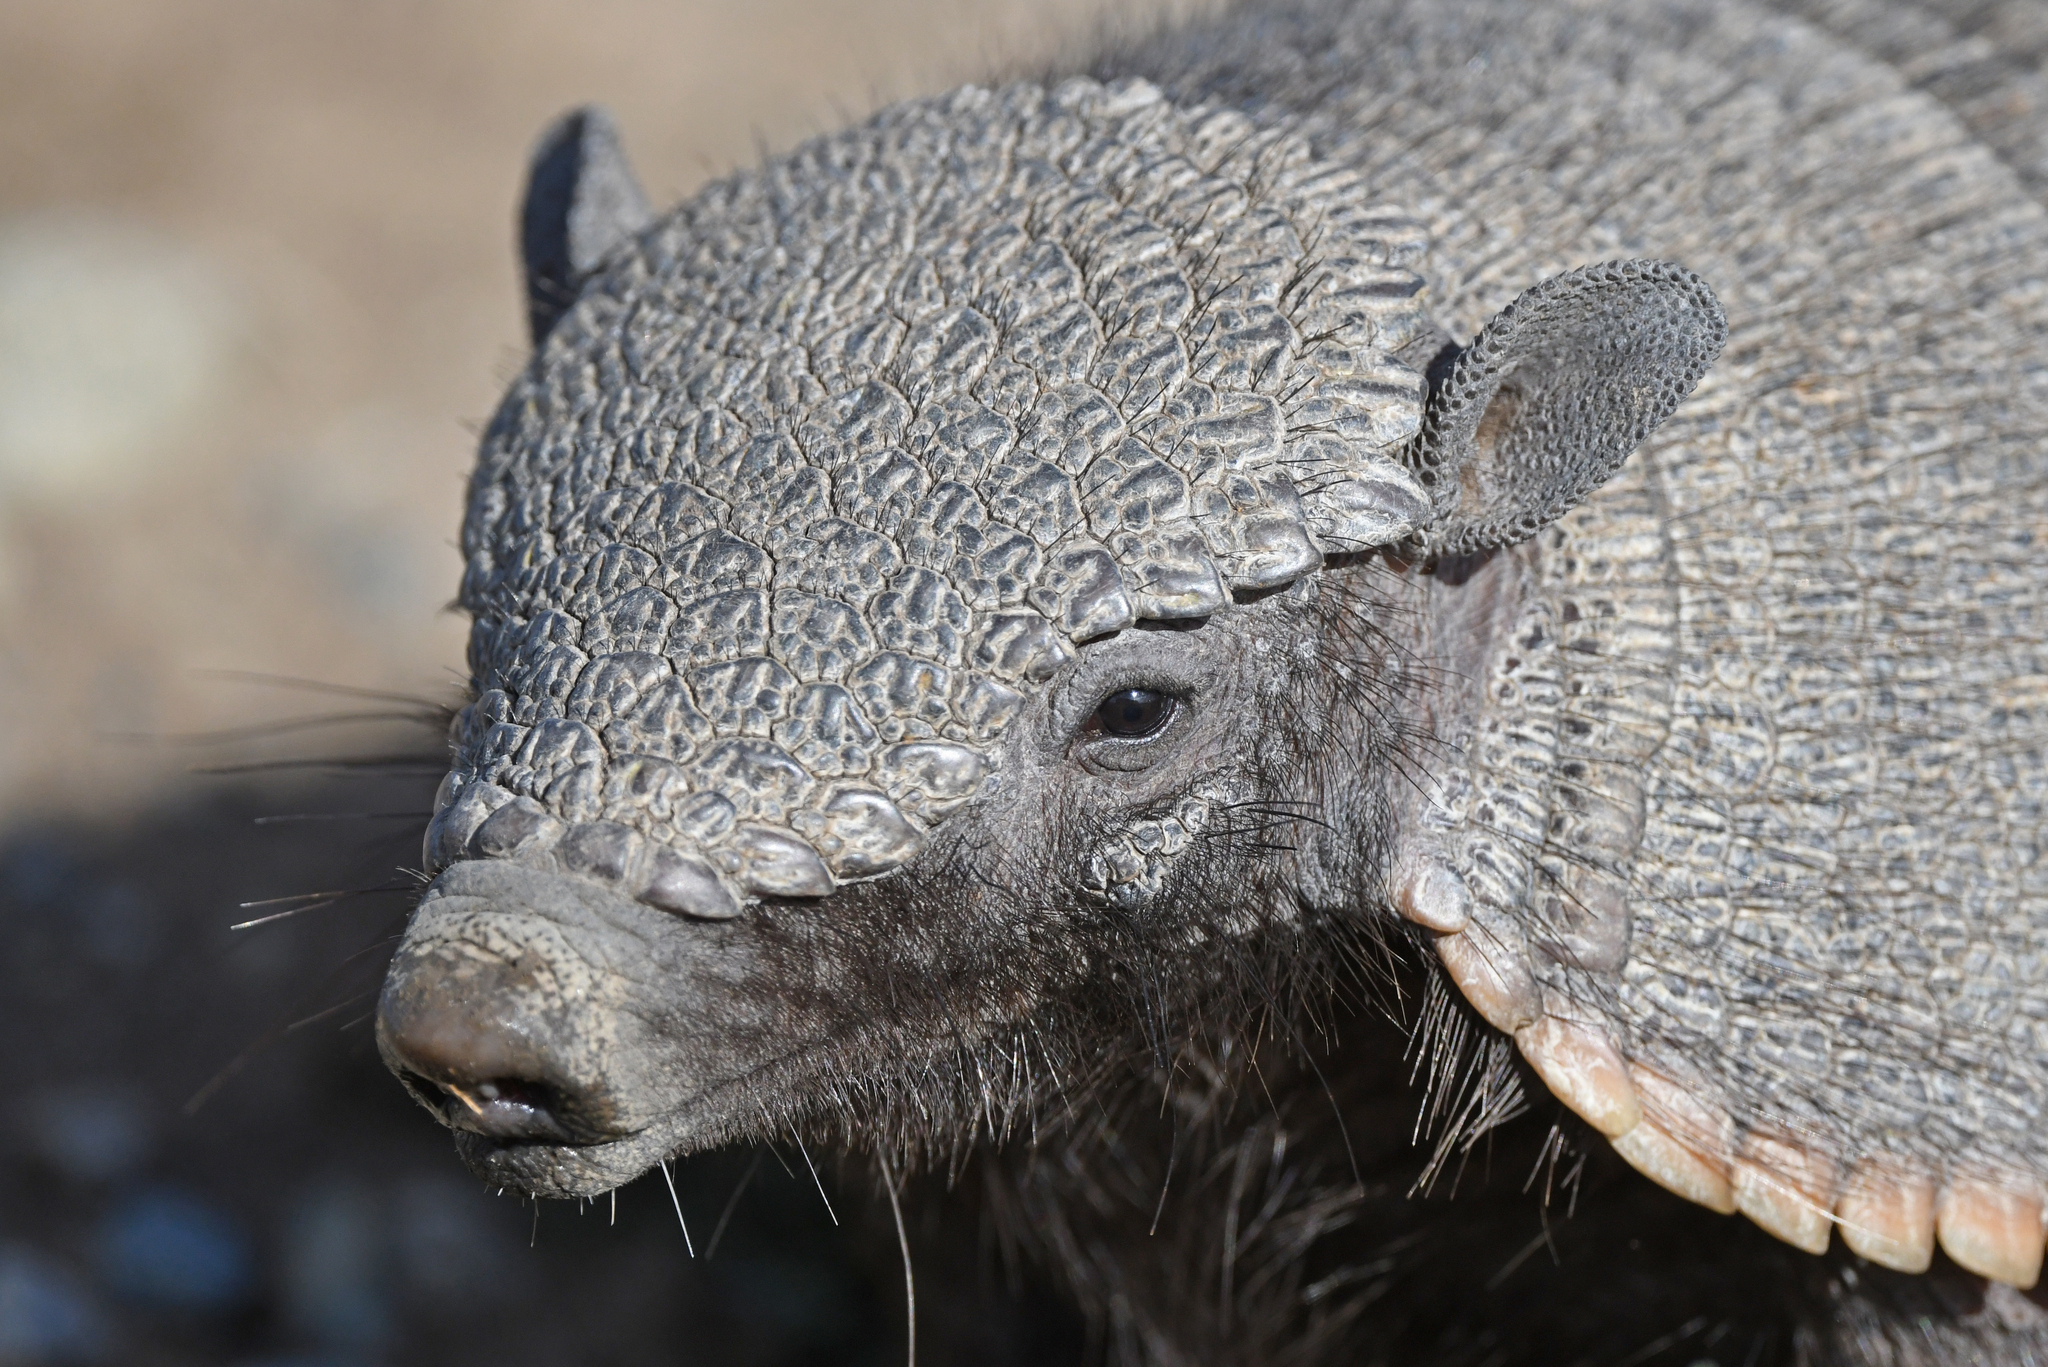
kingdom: Animalia
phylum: Chordata
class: Mammalia
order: Cingulata
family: Dasypodidae
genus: Chaetophractus
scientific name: Chaetophractus villosus
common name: Big hairy armadillo
